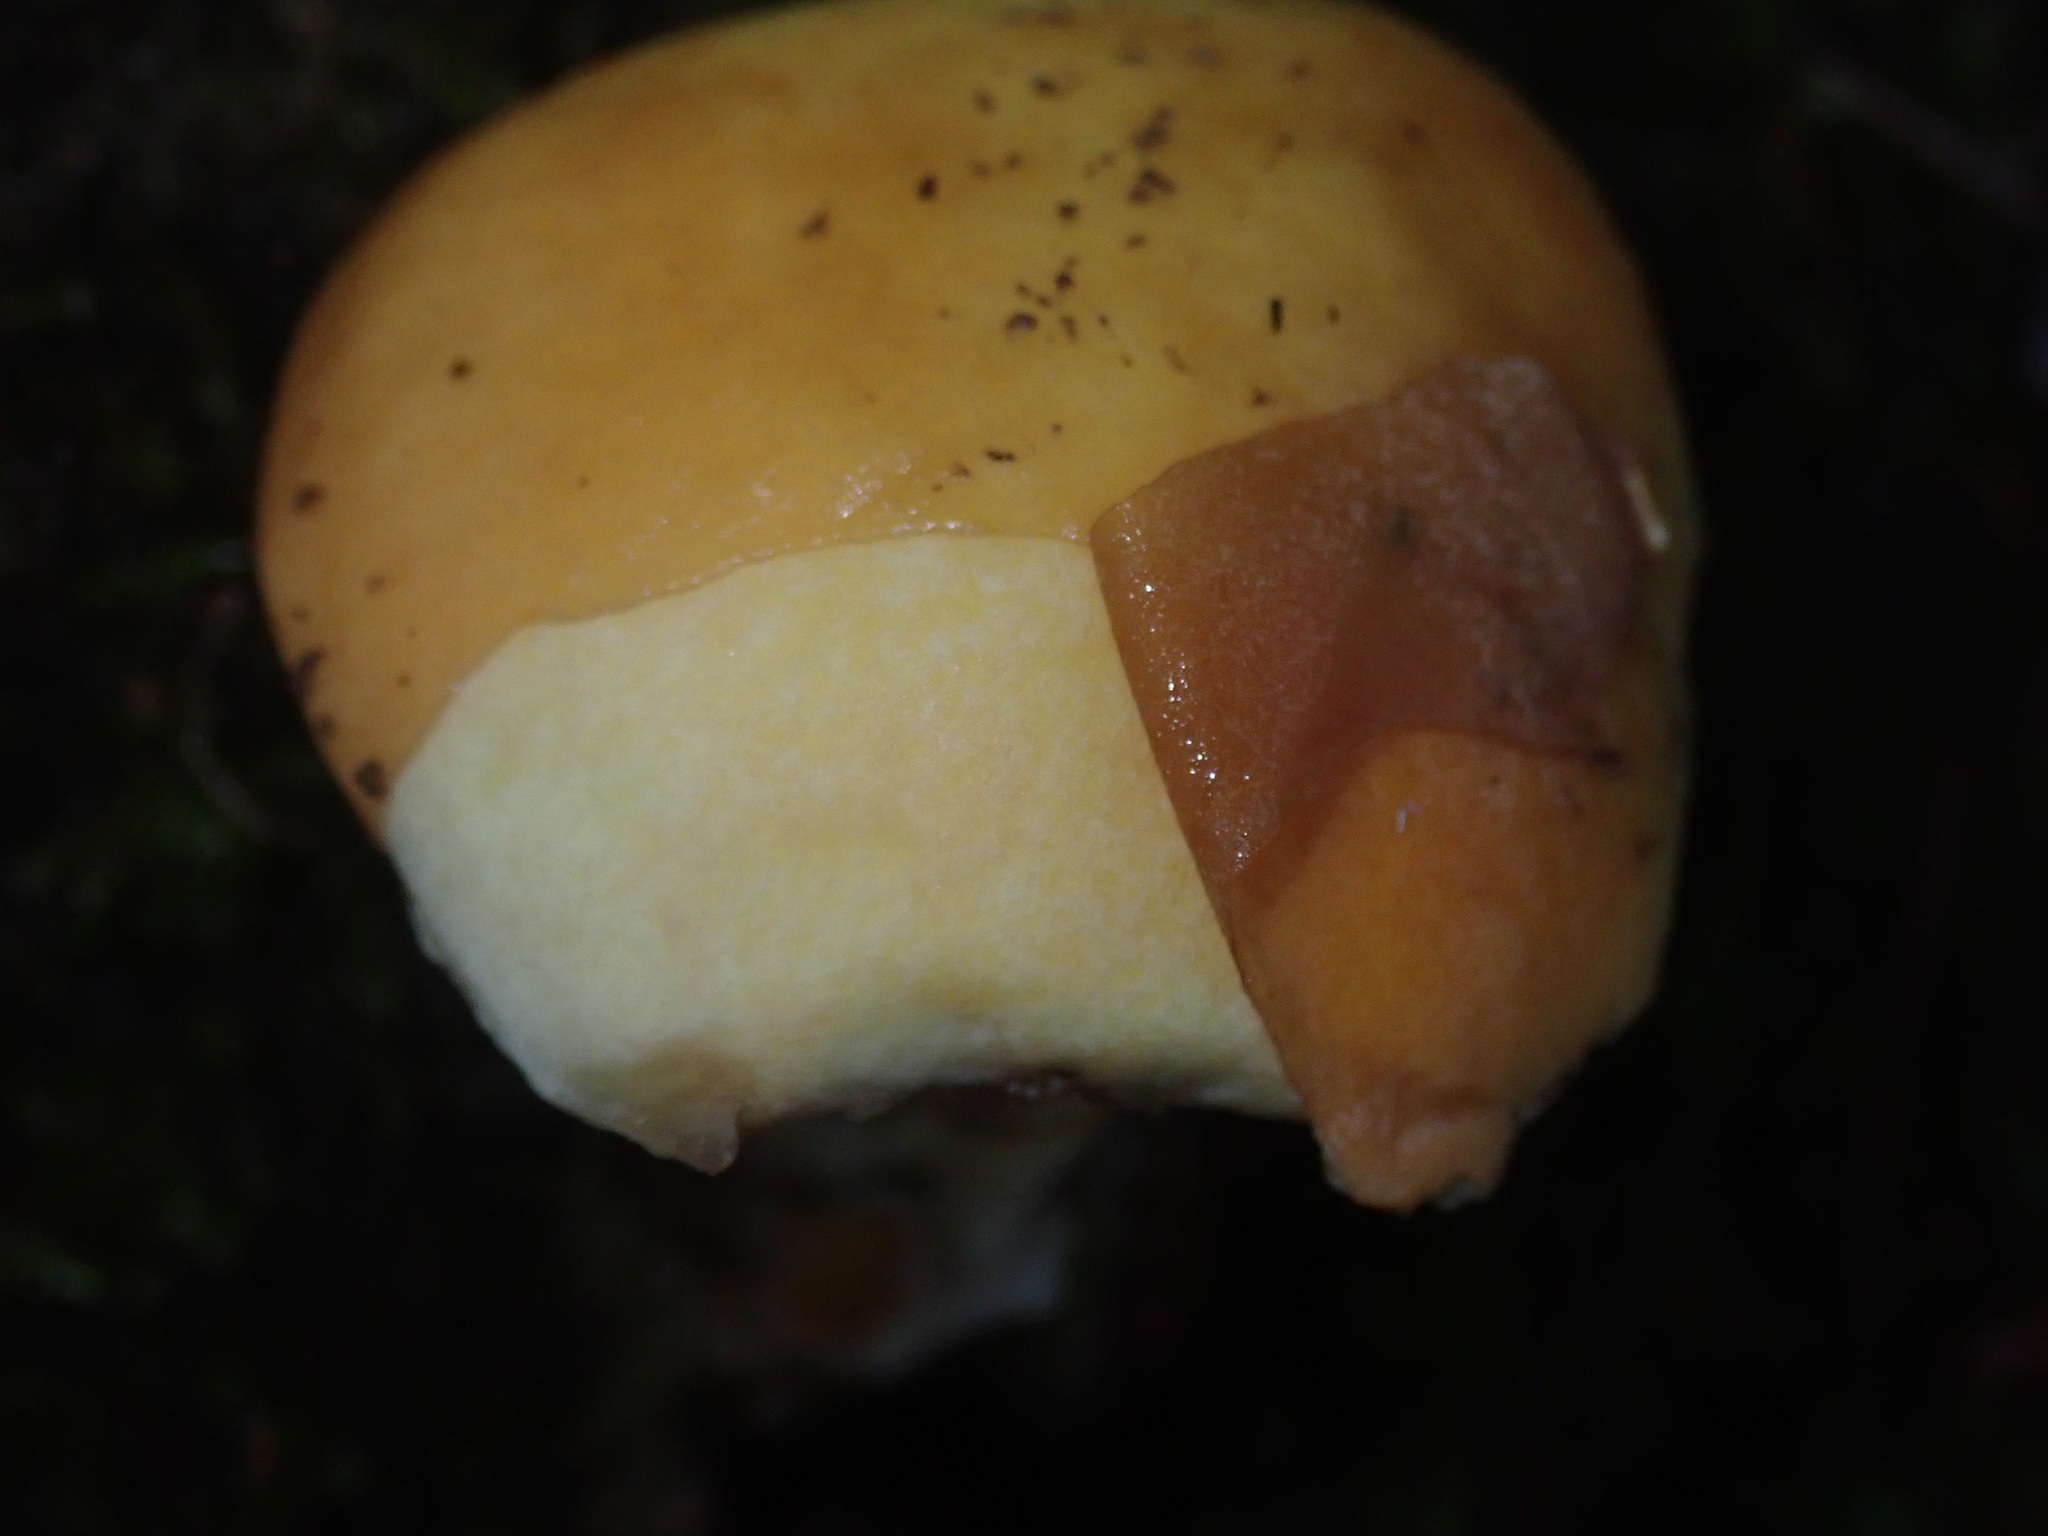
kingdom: Fungi
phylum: Basidiomycota
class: Agaricomycetes
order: Boletales
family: Suillaceae
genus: Suillus
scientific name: Suillus grevillei
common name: Larch bolete
